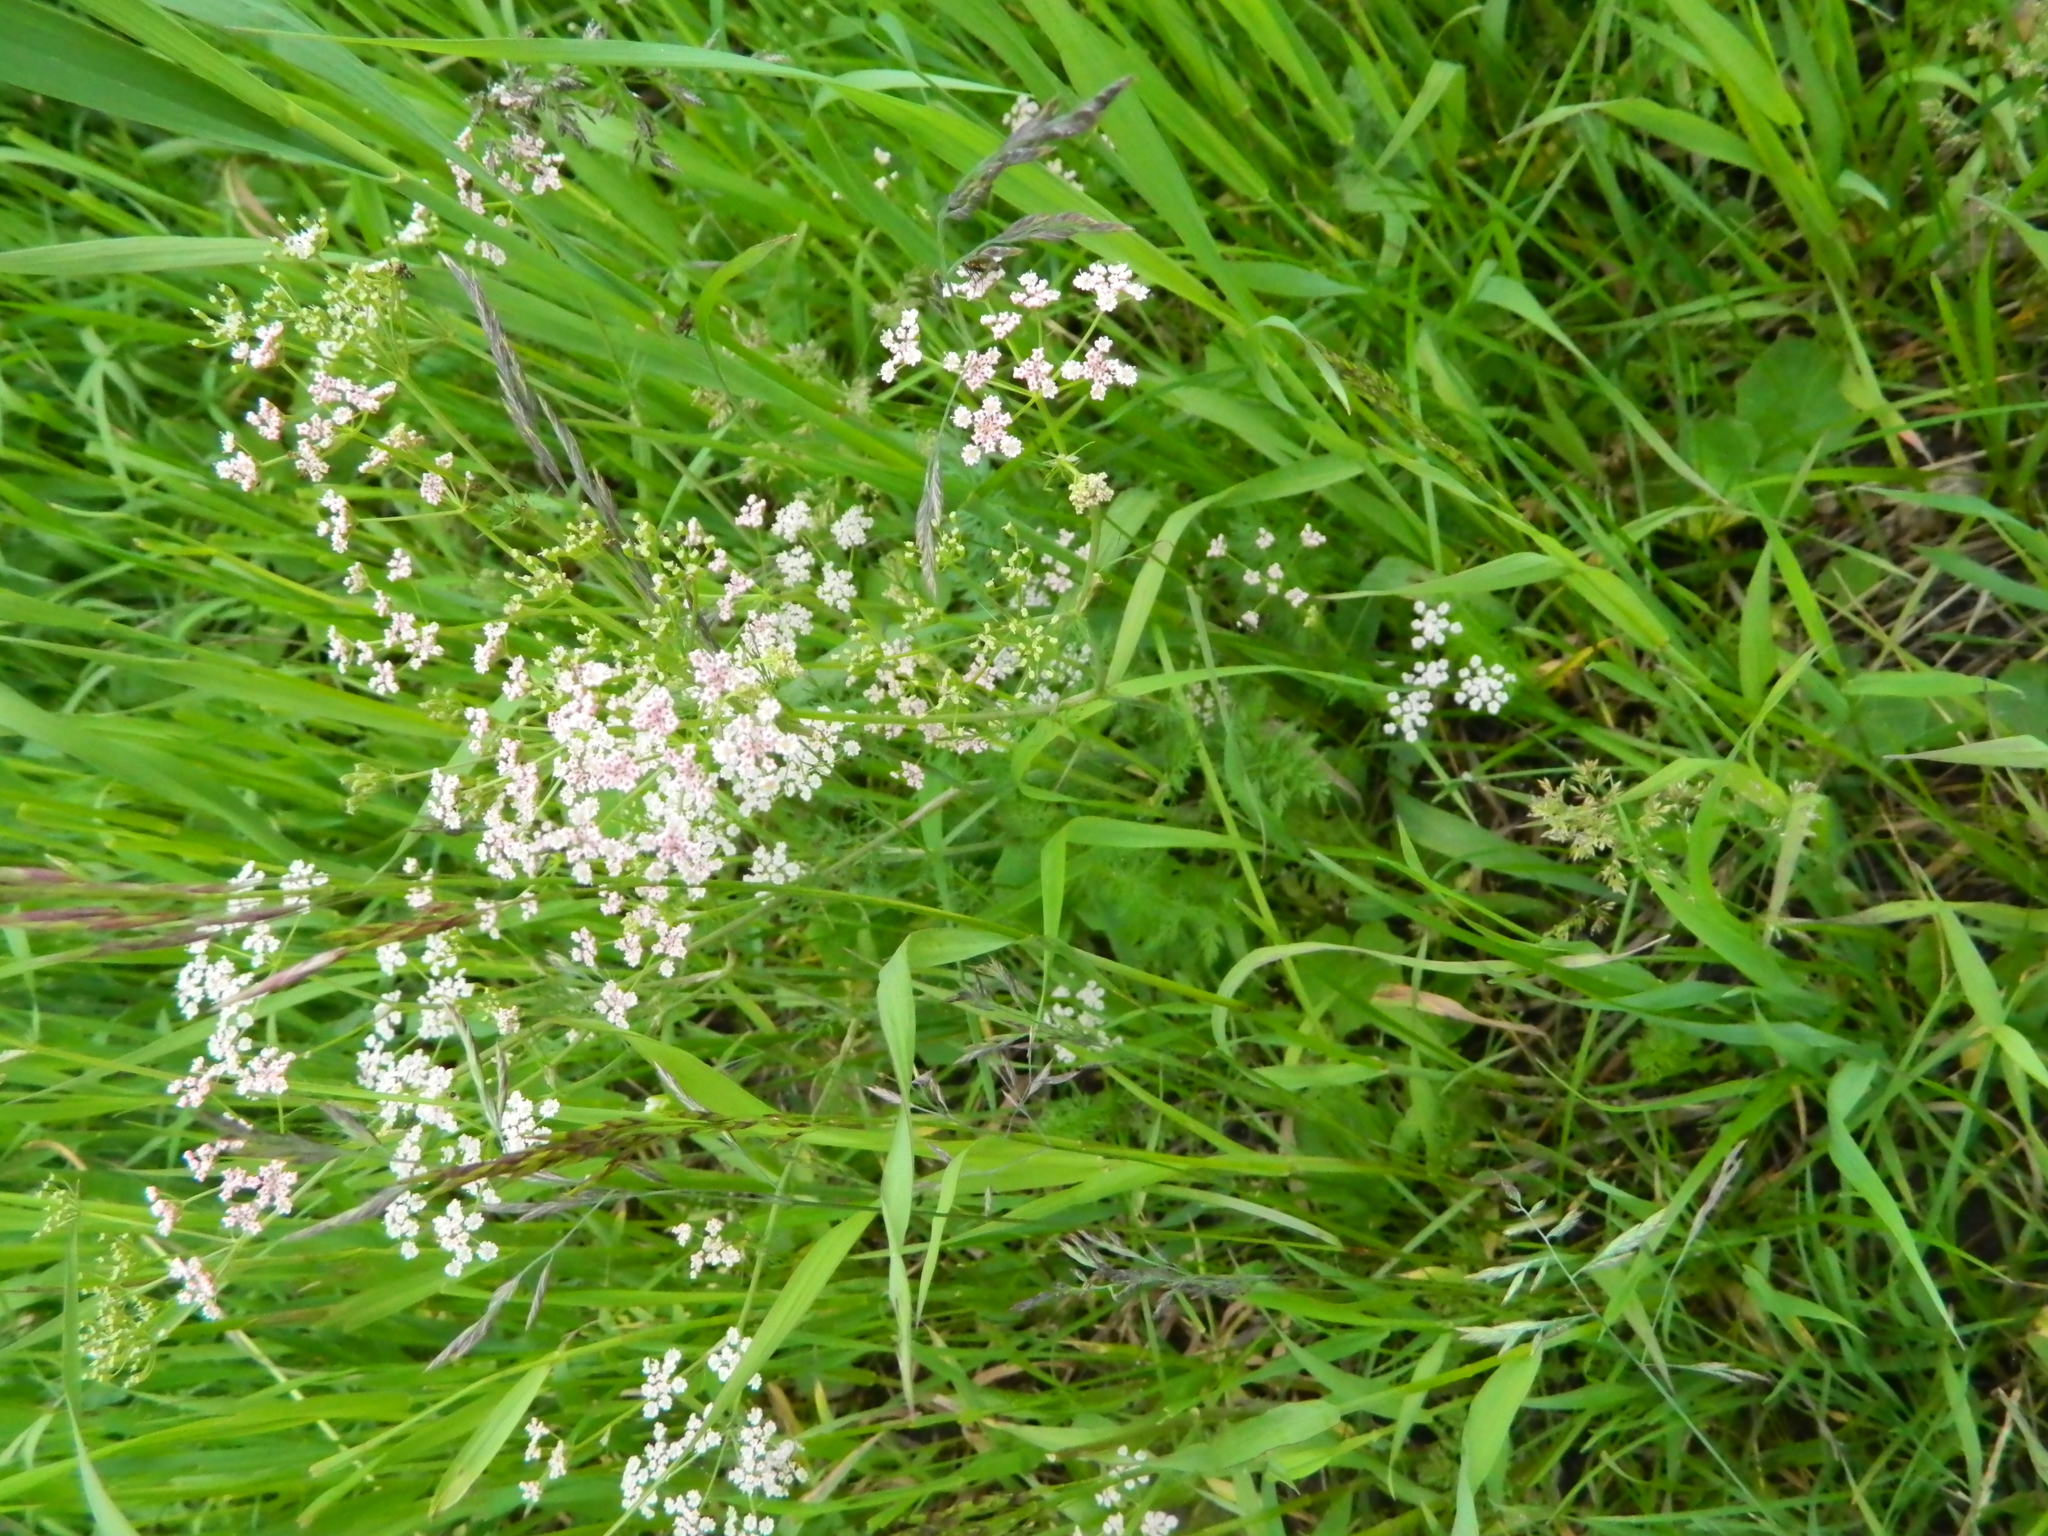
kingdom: Plantae
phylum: Tracheophyta
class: Magnoliopsida
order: Apiales
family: Apiaceae
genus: Carum
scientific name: Carum carvi
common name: Caraway
